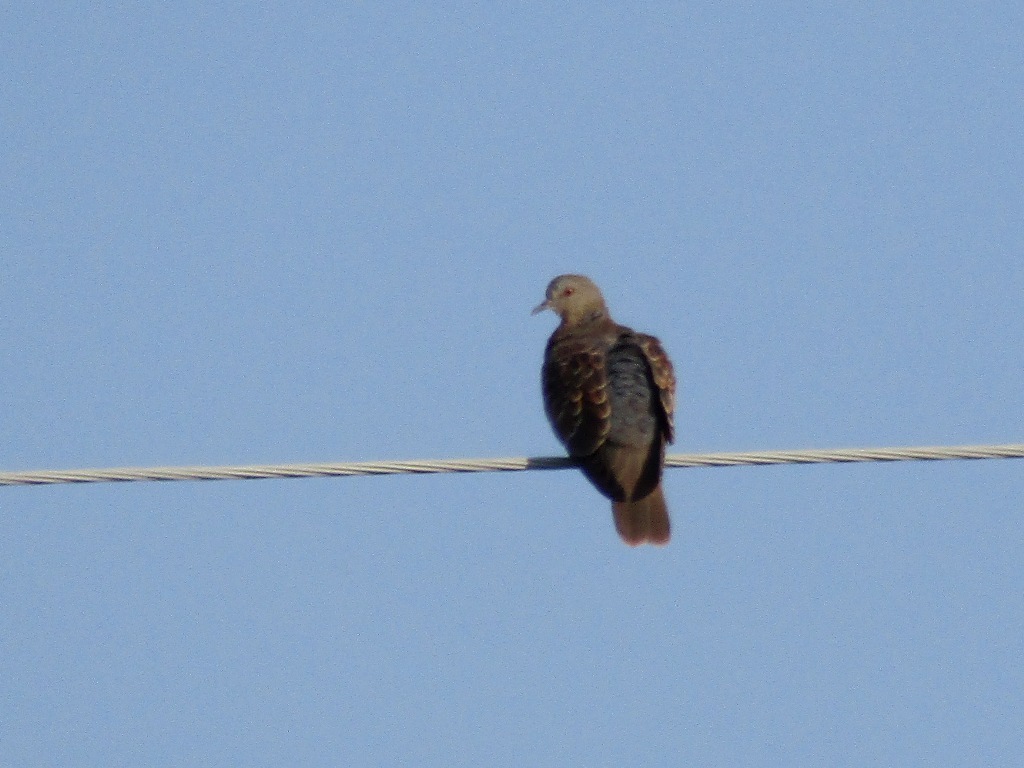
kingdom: Animalia
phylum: Chordata
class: Aves
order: Columbiformes
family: Columbidae
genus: Streptopelia
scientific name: Streptopelia orientalis
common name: Oriental turtle dove
